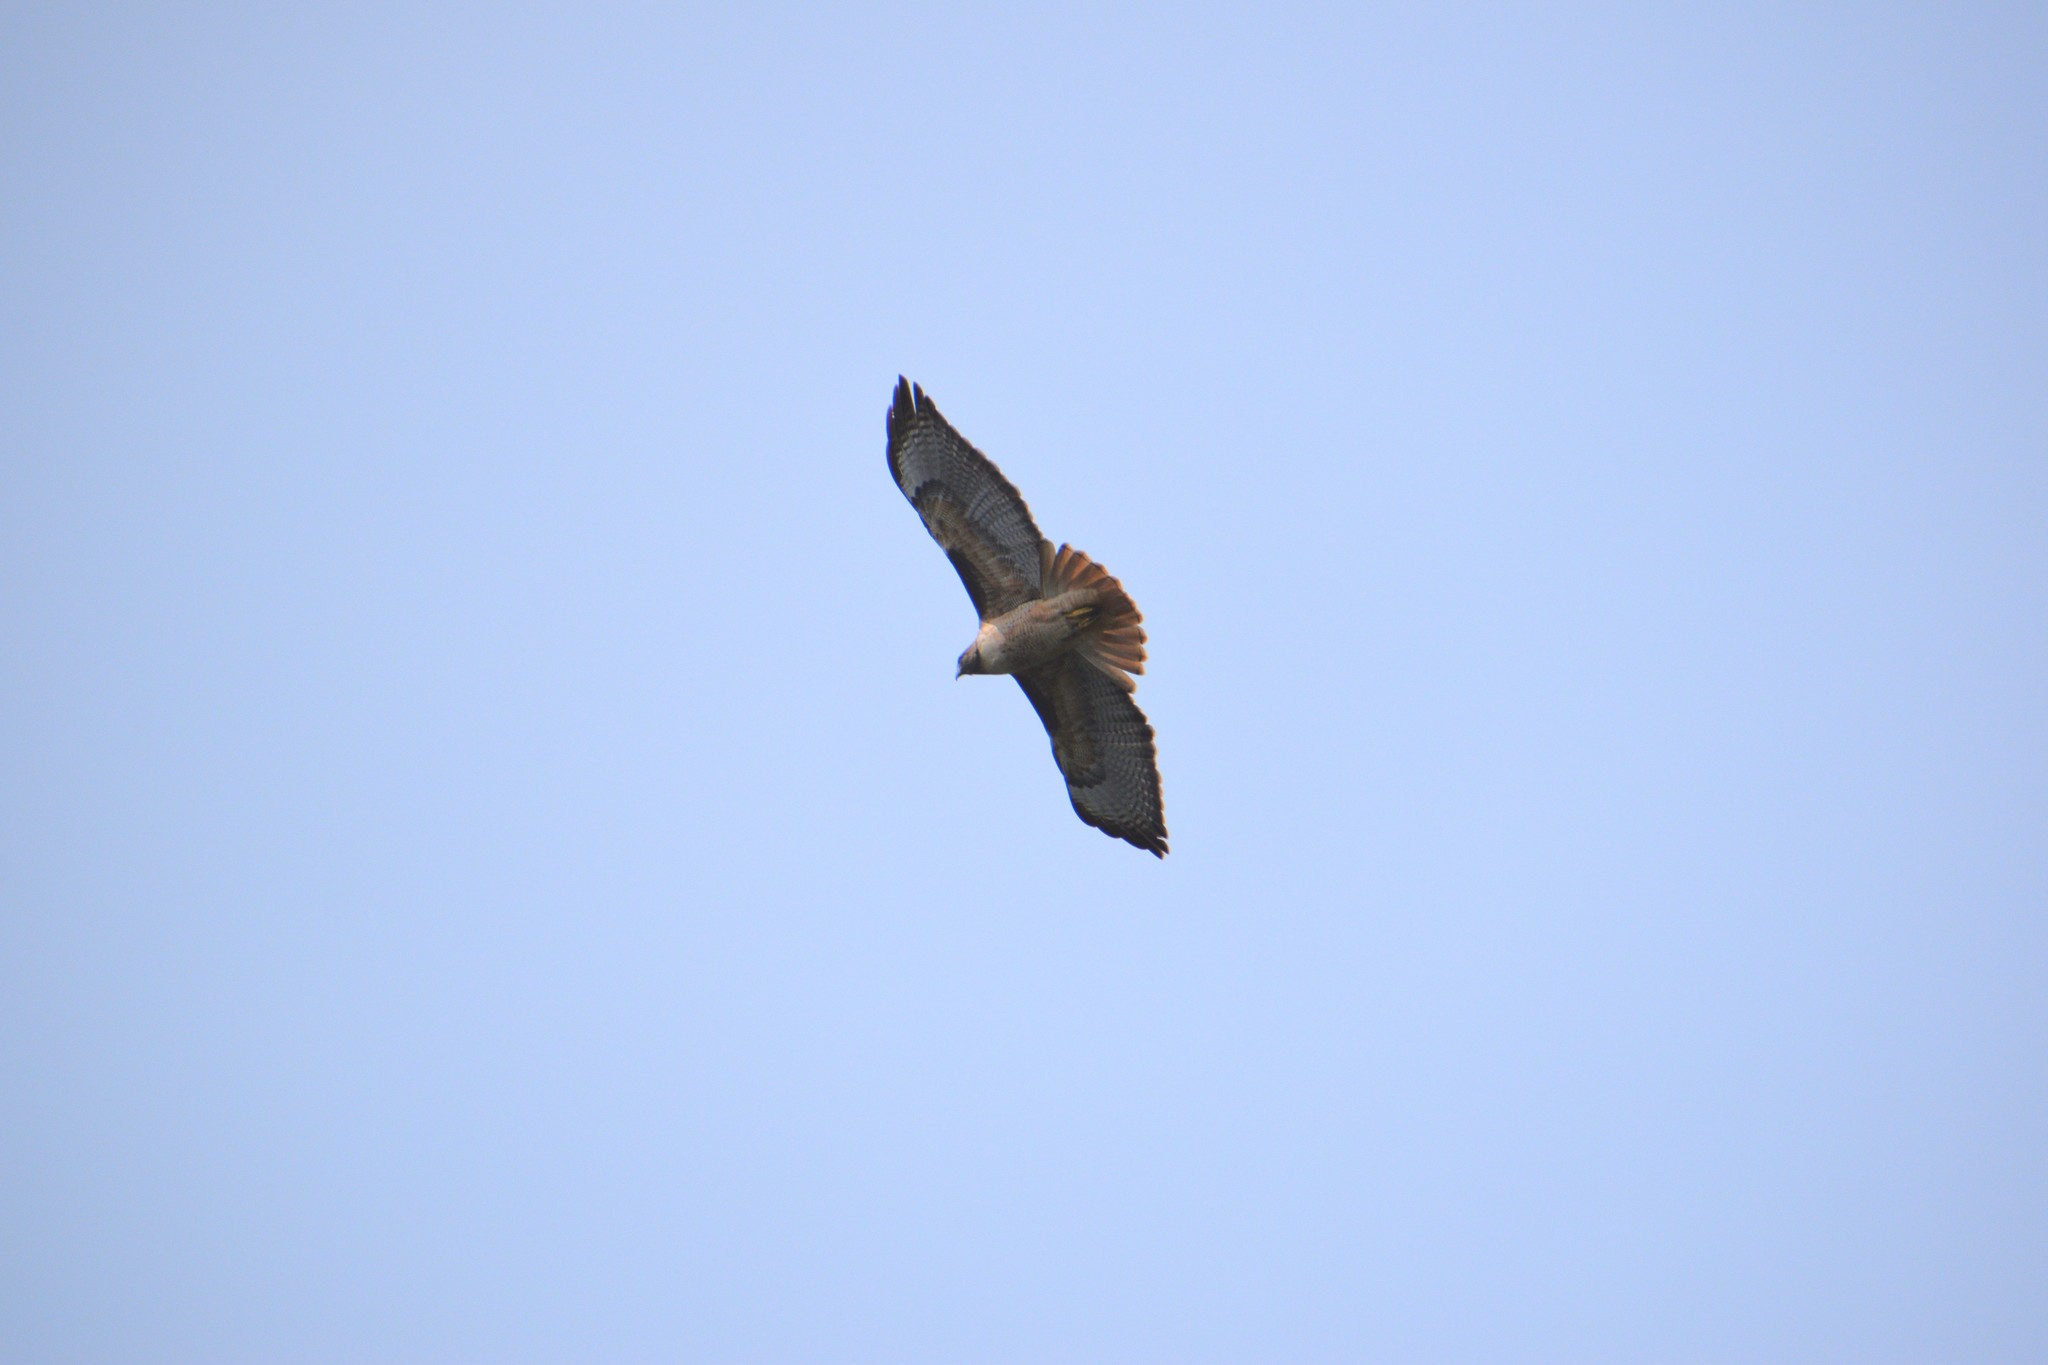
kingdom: Animalia
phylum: Chordata
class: Aves
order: Accipitriformes
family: Accipitridae
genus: Buteo
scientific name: Buteo jamaicensis
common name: Red-tailed hawk
